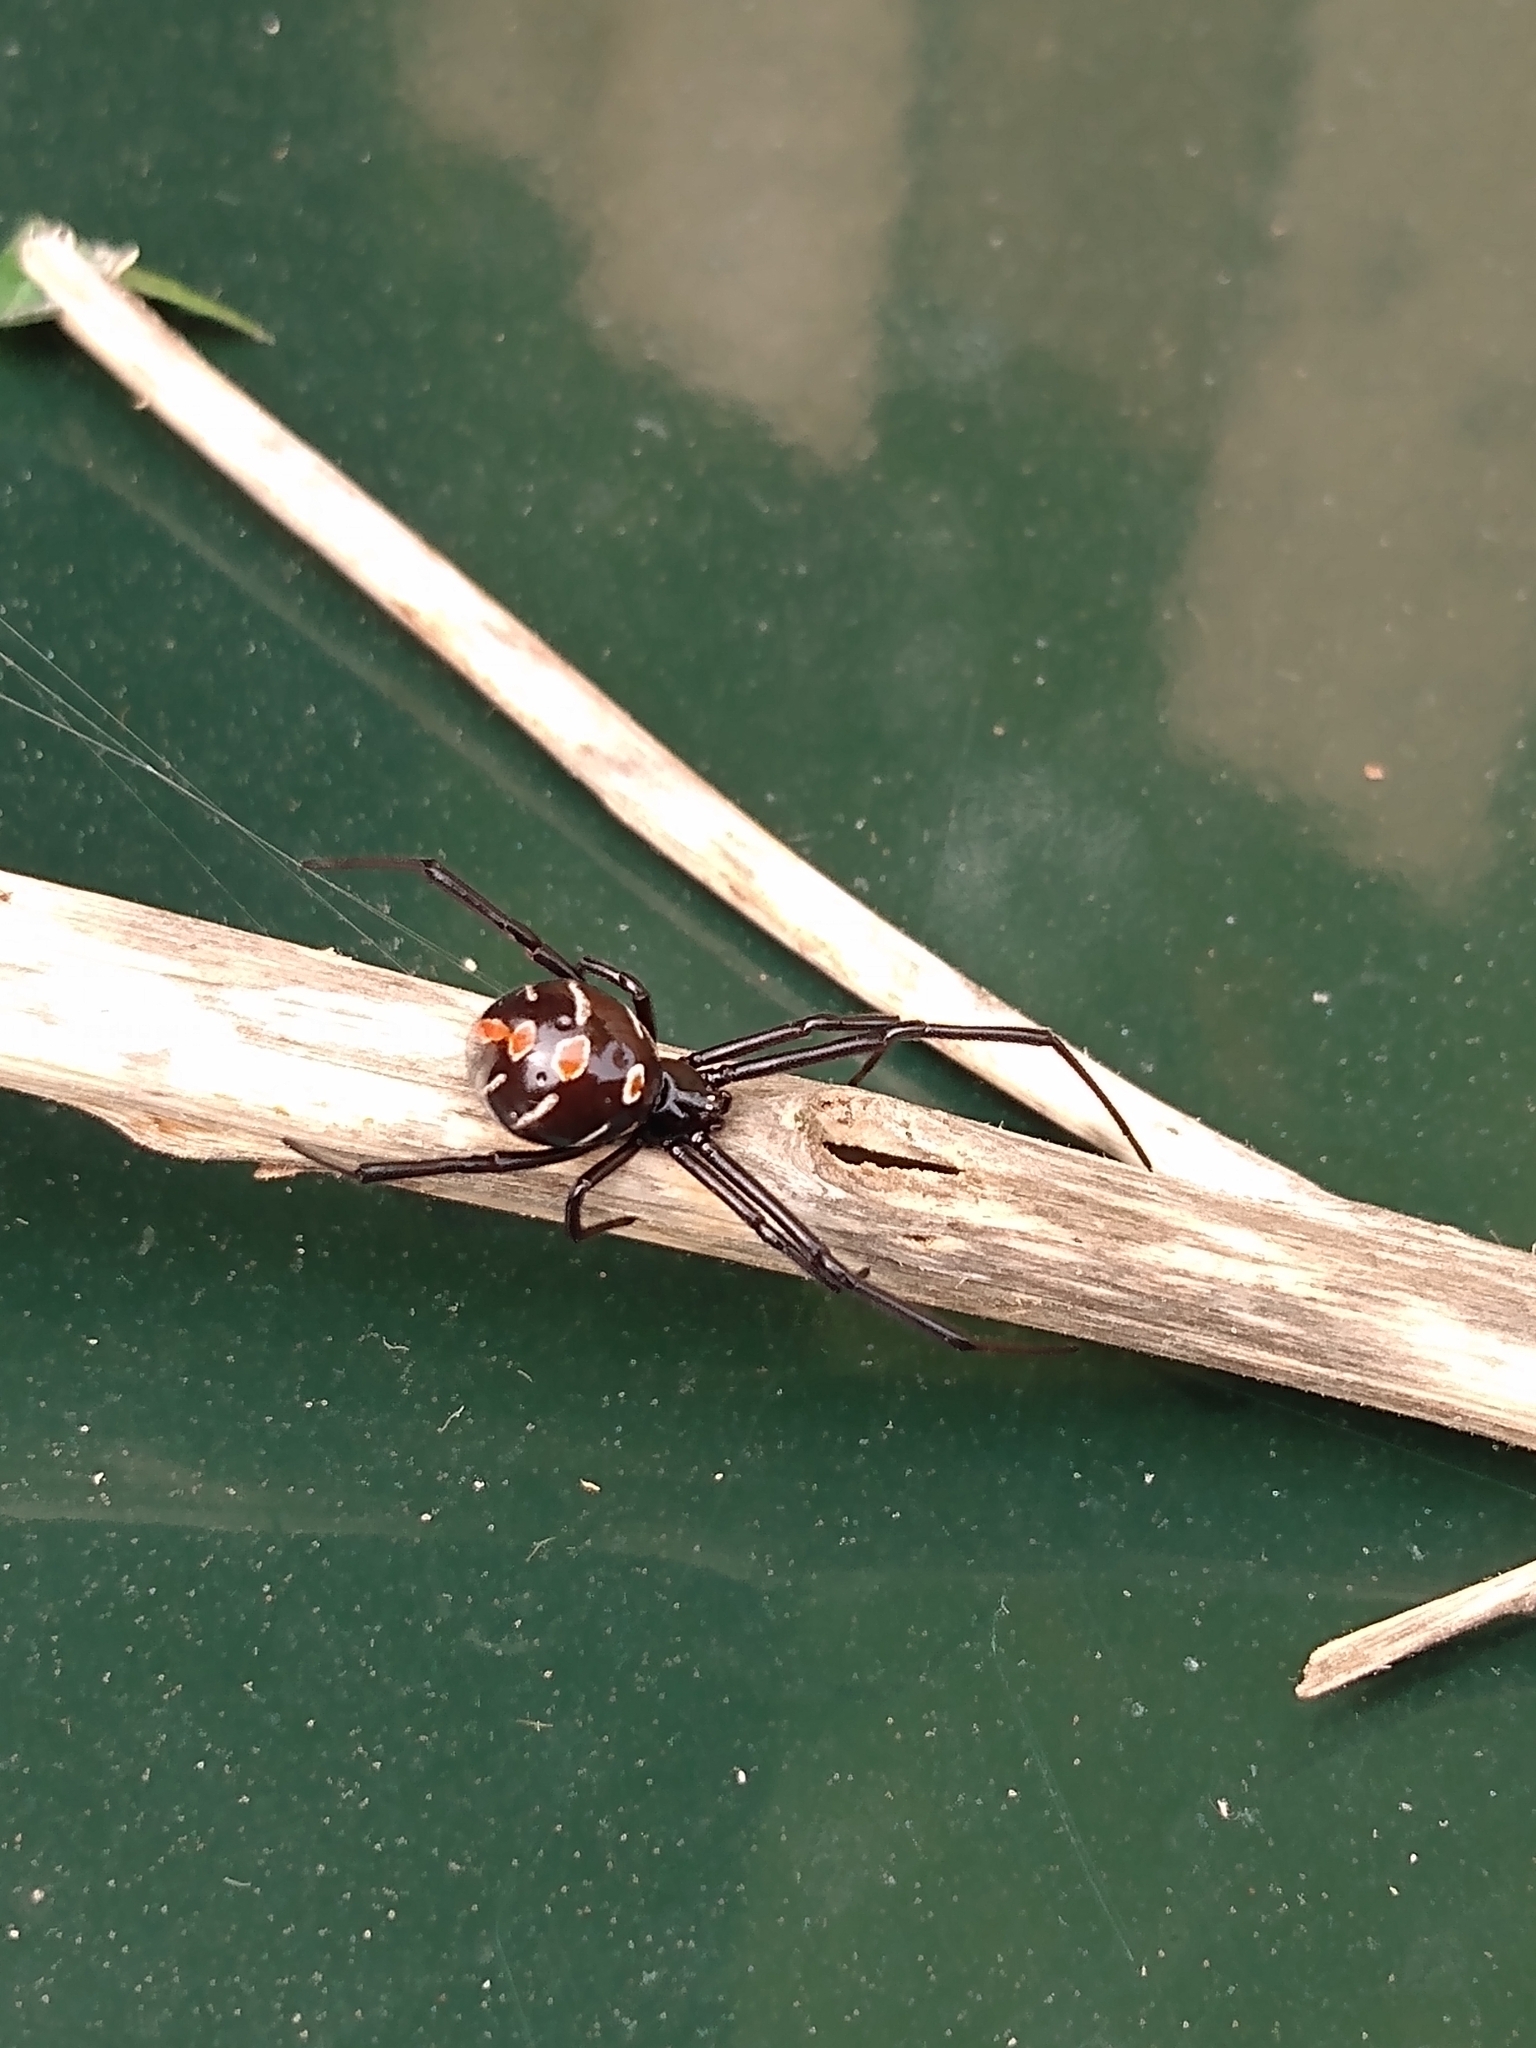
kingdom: Animalia
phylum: Arthropoda
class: Arachnida
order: Araneae
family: Theridiidae
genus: Latrodectus
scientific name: Latrodectus variolus
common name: Northern black widow
